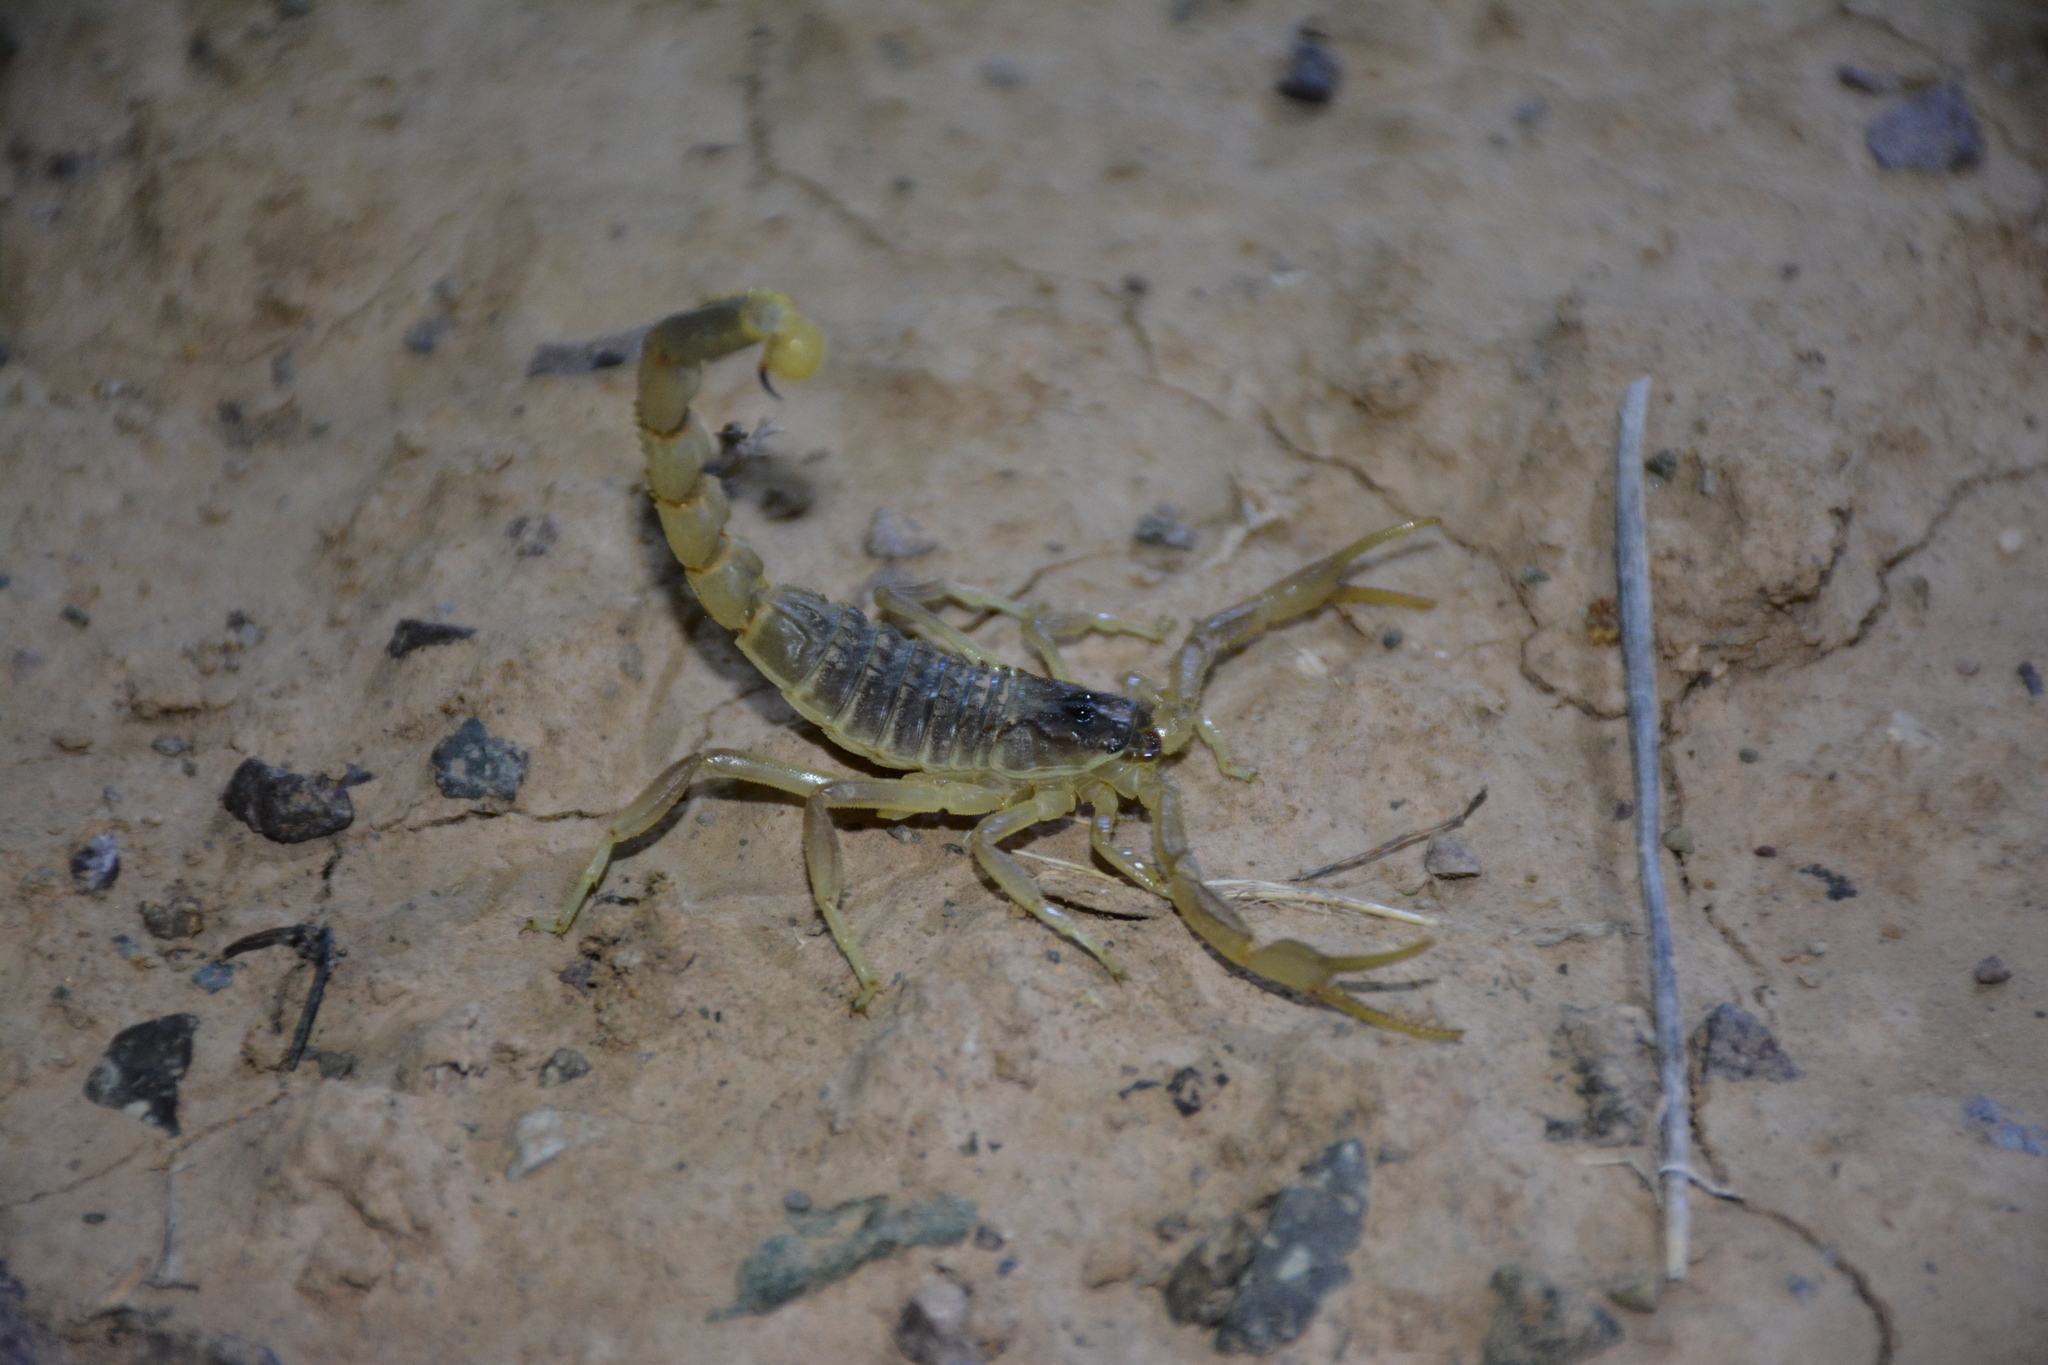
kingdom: Animalia
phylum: Arthropoda
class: Arachnida
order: Scorpiones
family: Buthidae
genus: Odontobuthus
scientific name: Odontobuthus doriae
